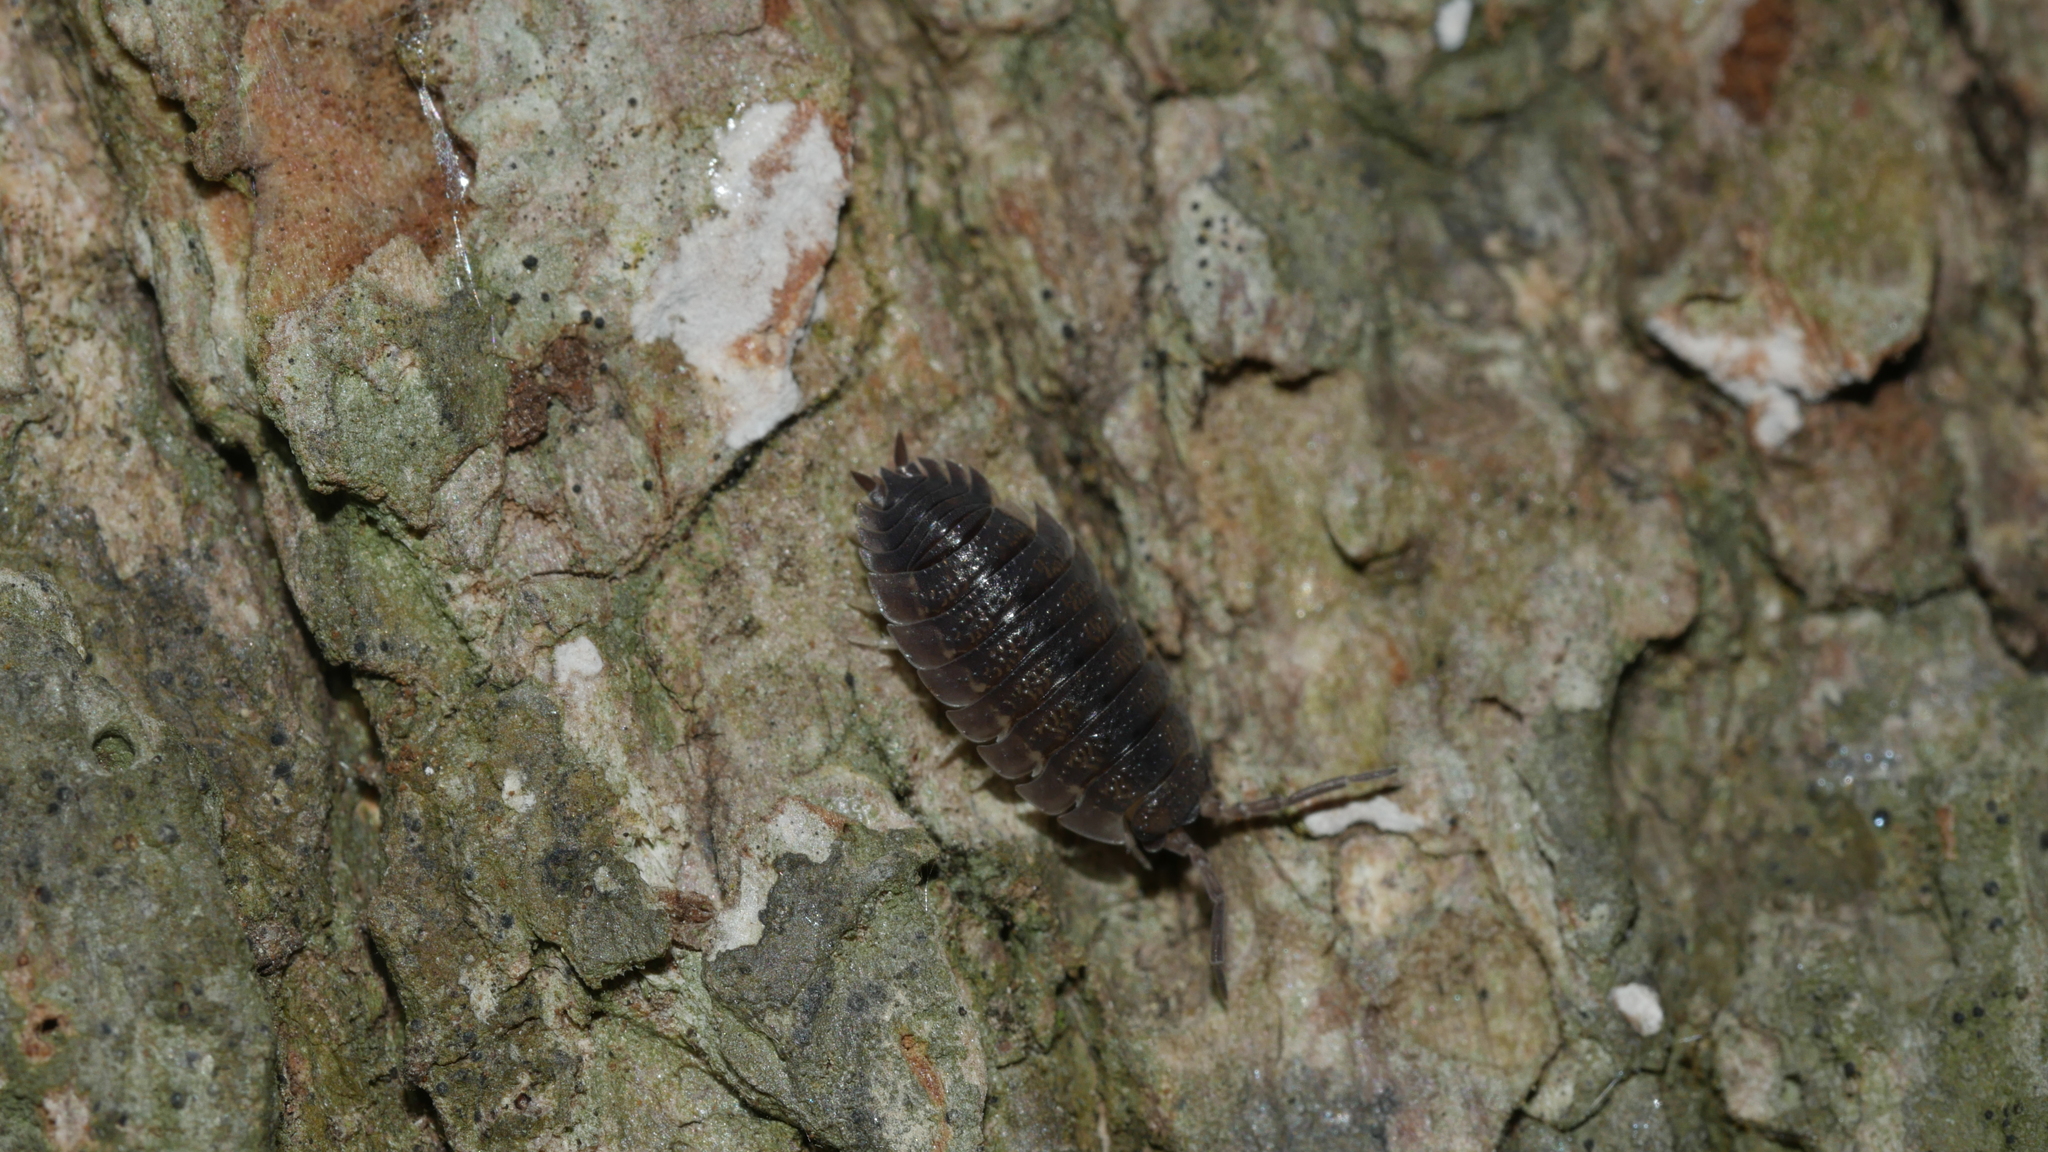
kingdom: Animalia
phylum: Arthropoda
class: Malacostraca
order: Isopoda
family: Porcellionidae
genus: Porcellio
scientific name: Porcellio scaber
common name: Common rough woodlouse
